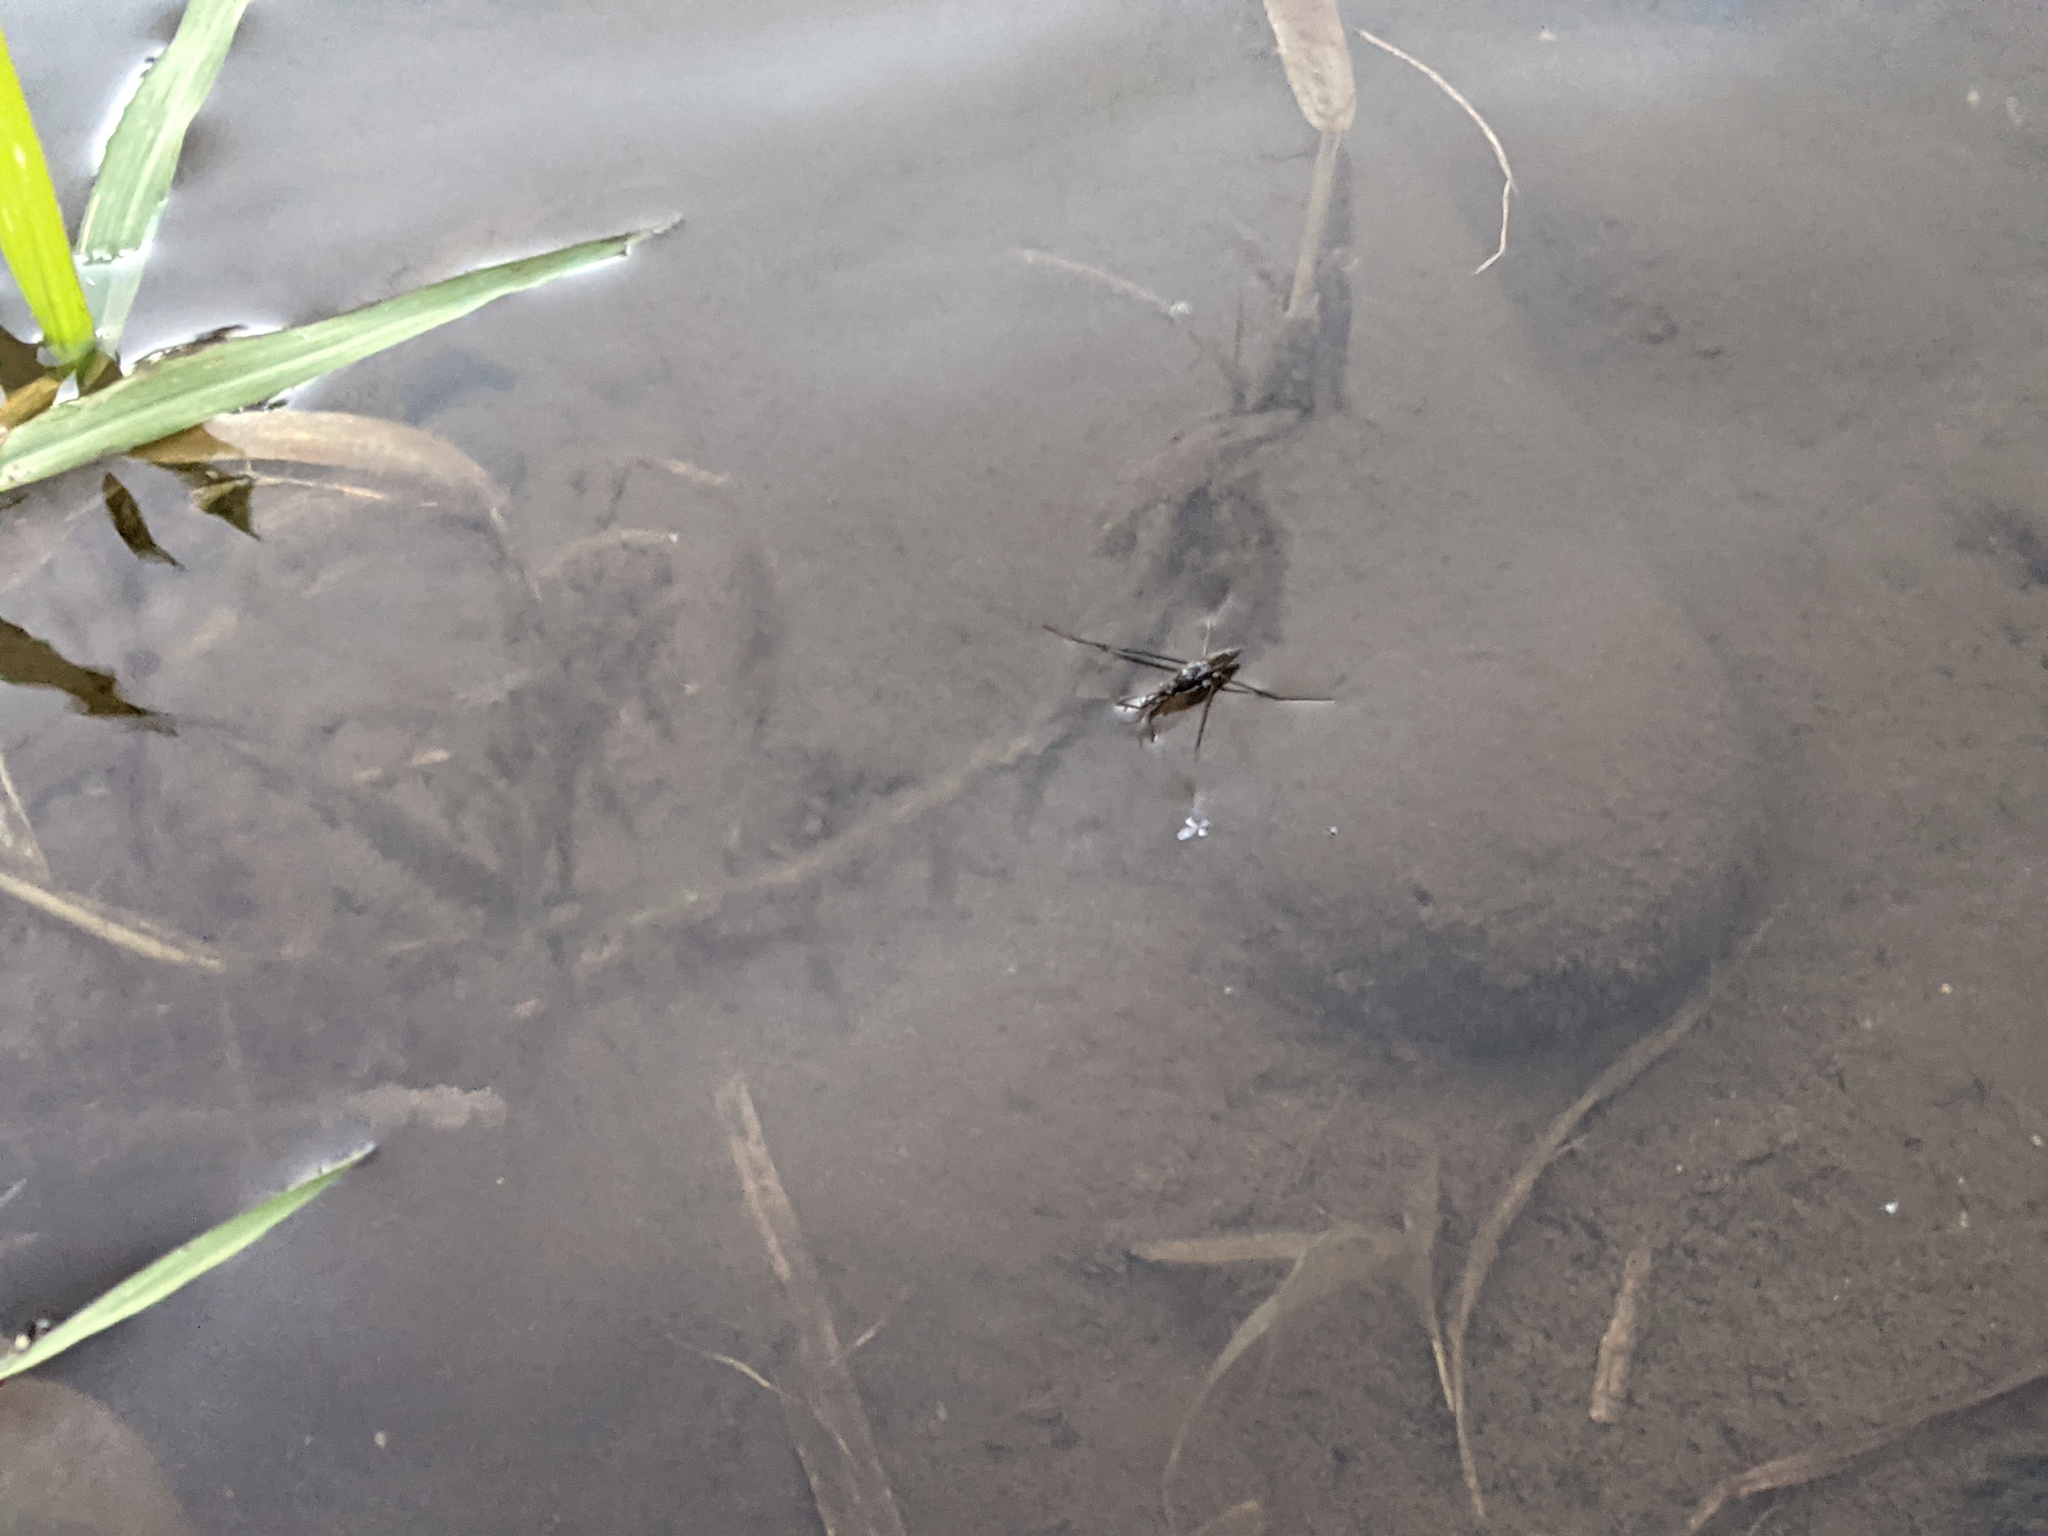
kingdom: Animalia
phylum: Arthropoda
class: Insecta
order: Hemiptera
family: Gerridae
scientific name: Gerridae
